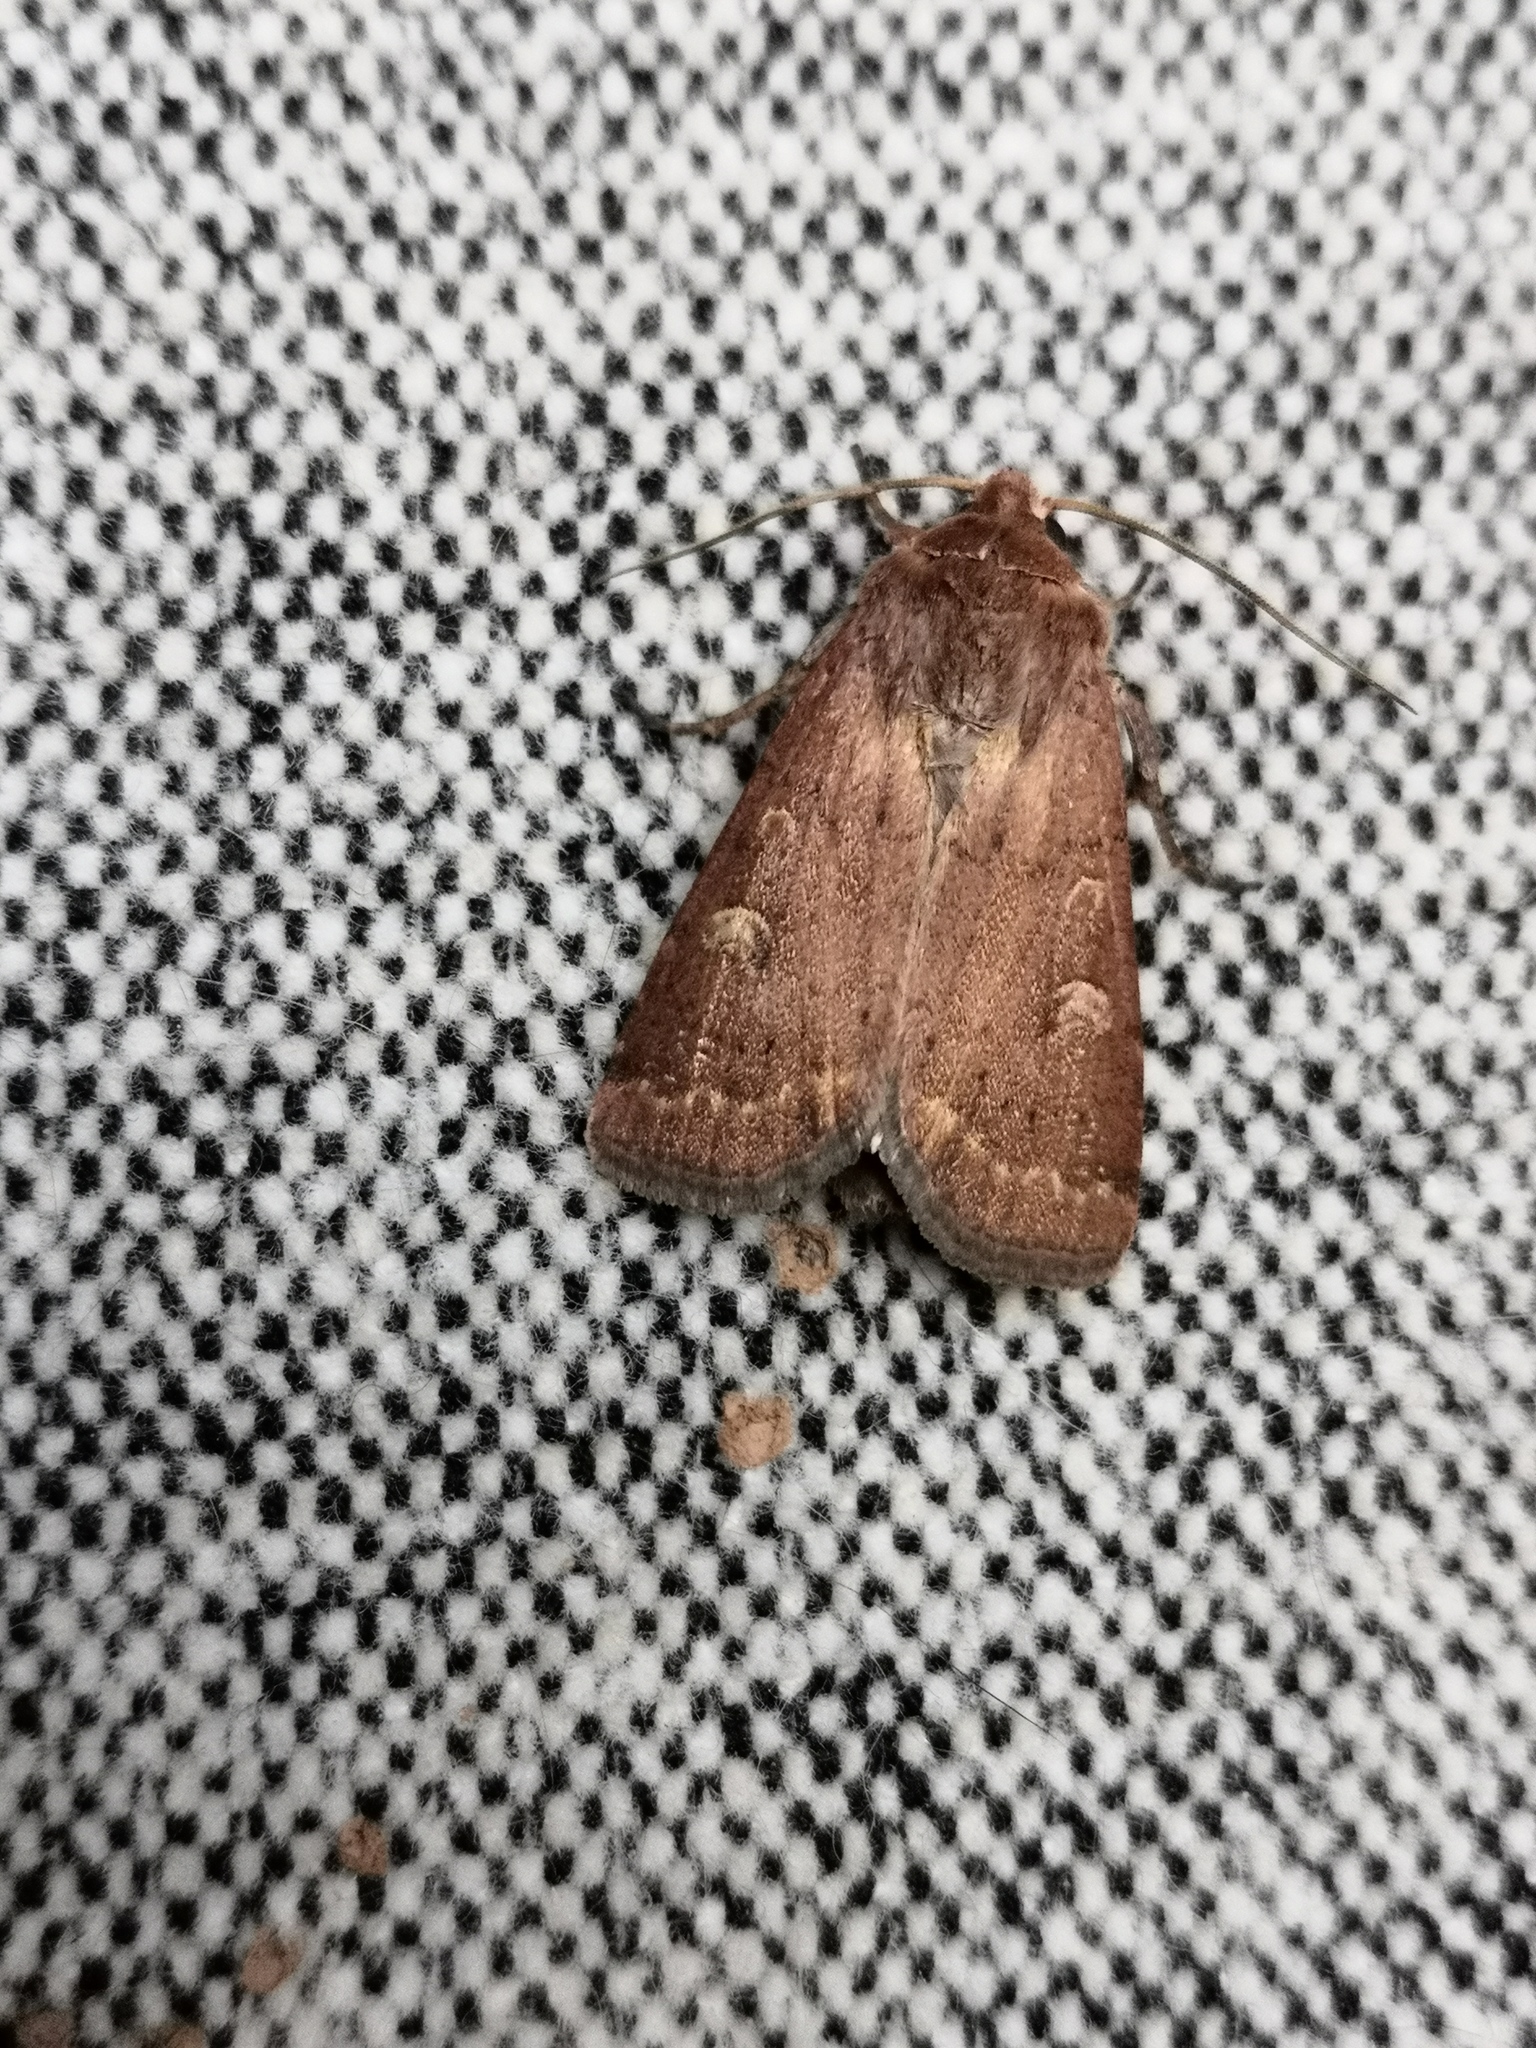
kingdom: Animalia
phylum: Arthropoda
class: Insecta
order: Lepidoptera
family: Noctuidae
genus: Xestia
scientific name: Xestia xanthographa
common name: Square-spot rustic
